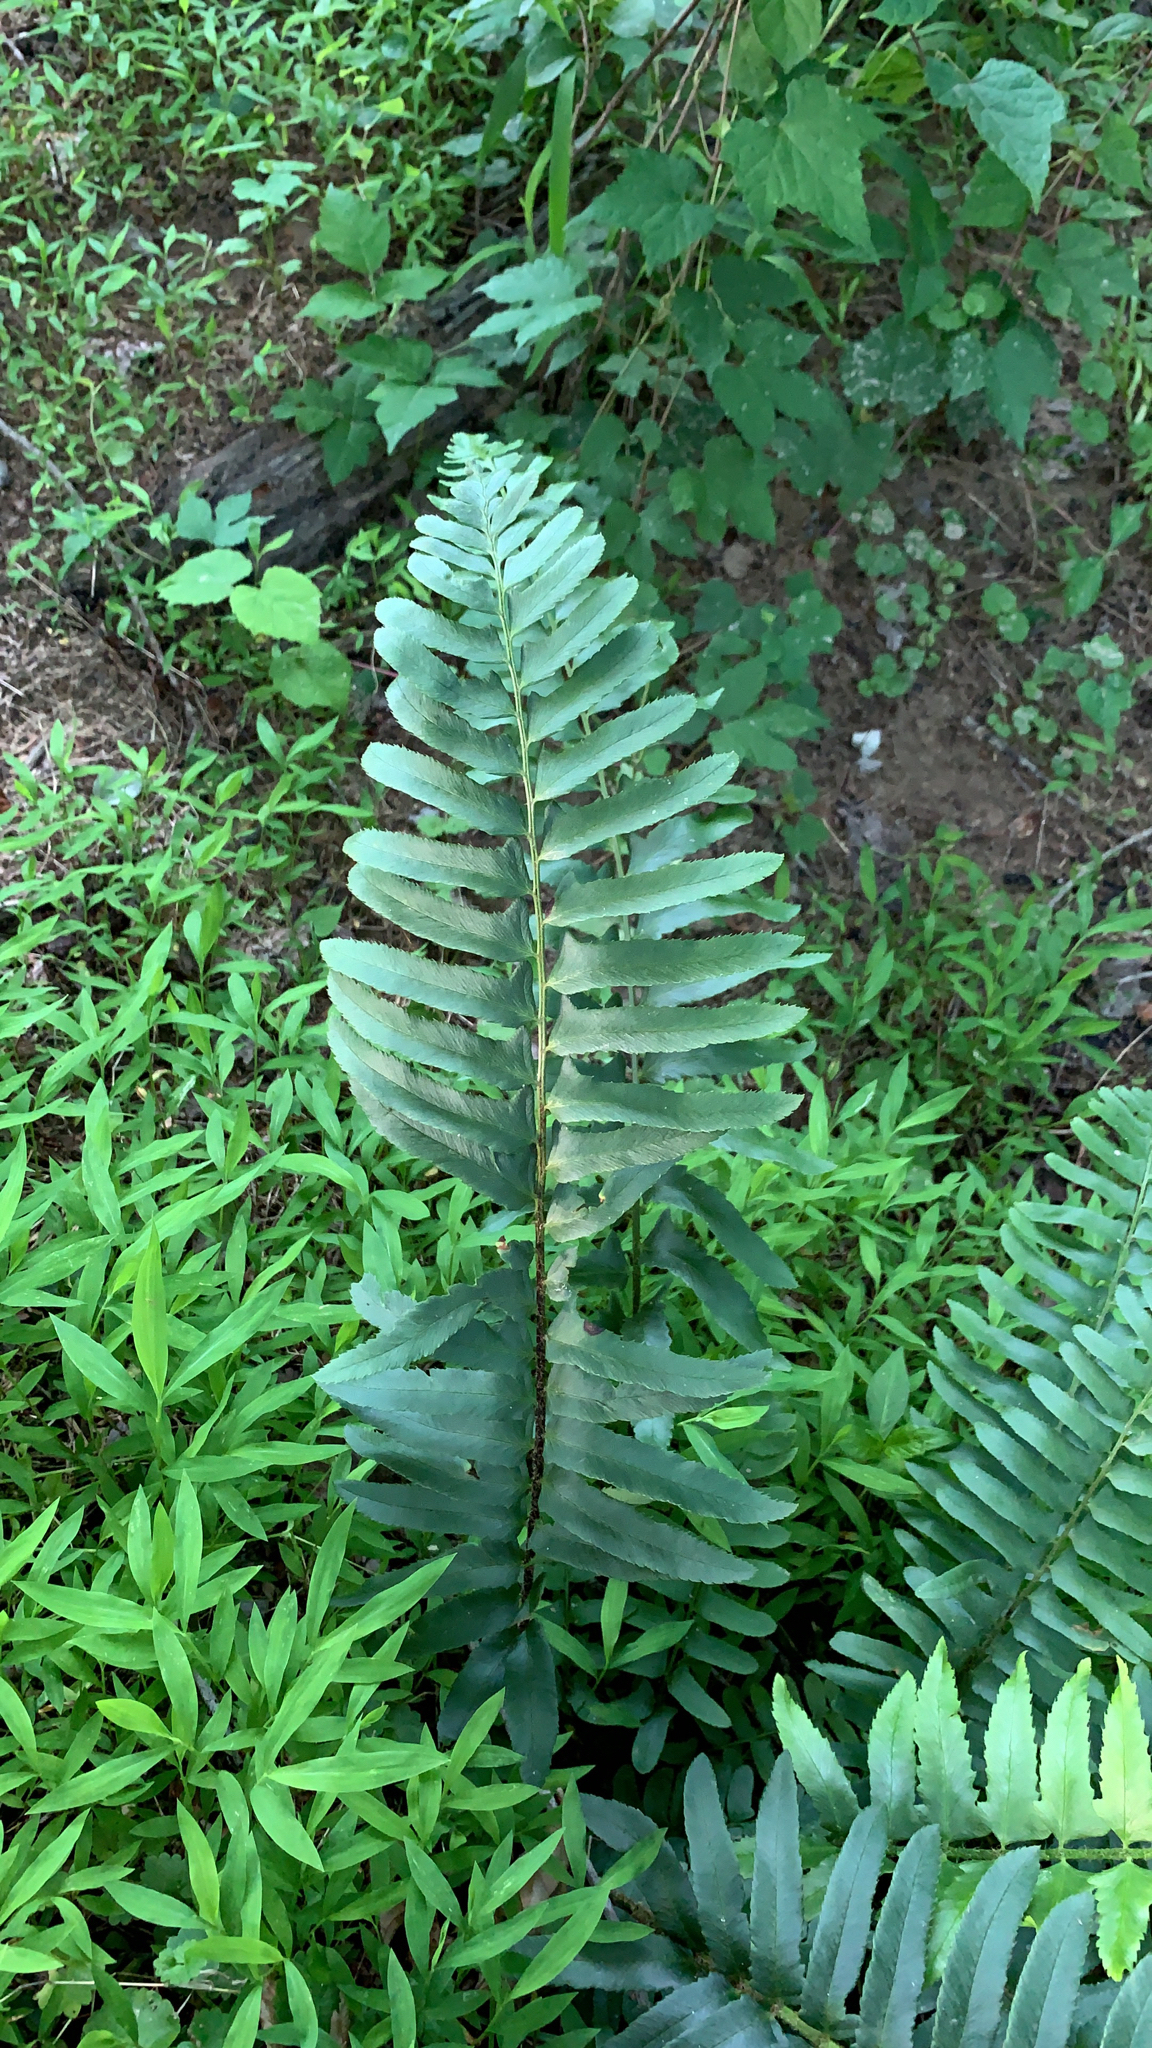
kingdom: Plantae
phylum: Tracheophyta
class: Polypodiopsida
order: Polypodiales
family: Dryopteridaceae
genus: Polystichum
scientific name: Polystichum acrostichoides
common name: Christmas fern
